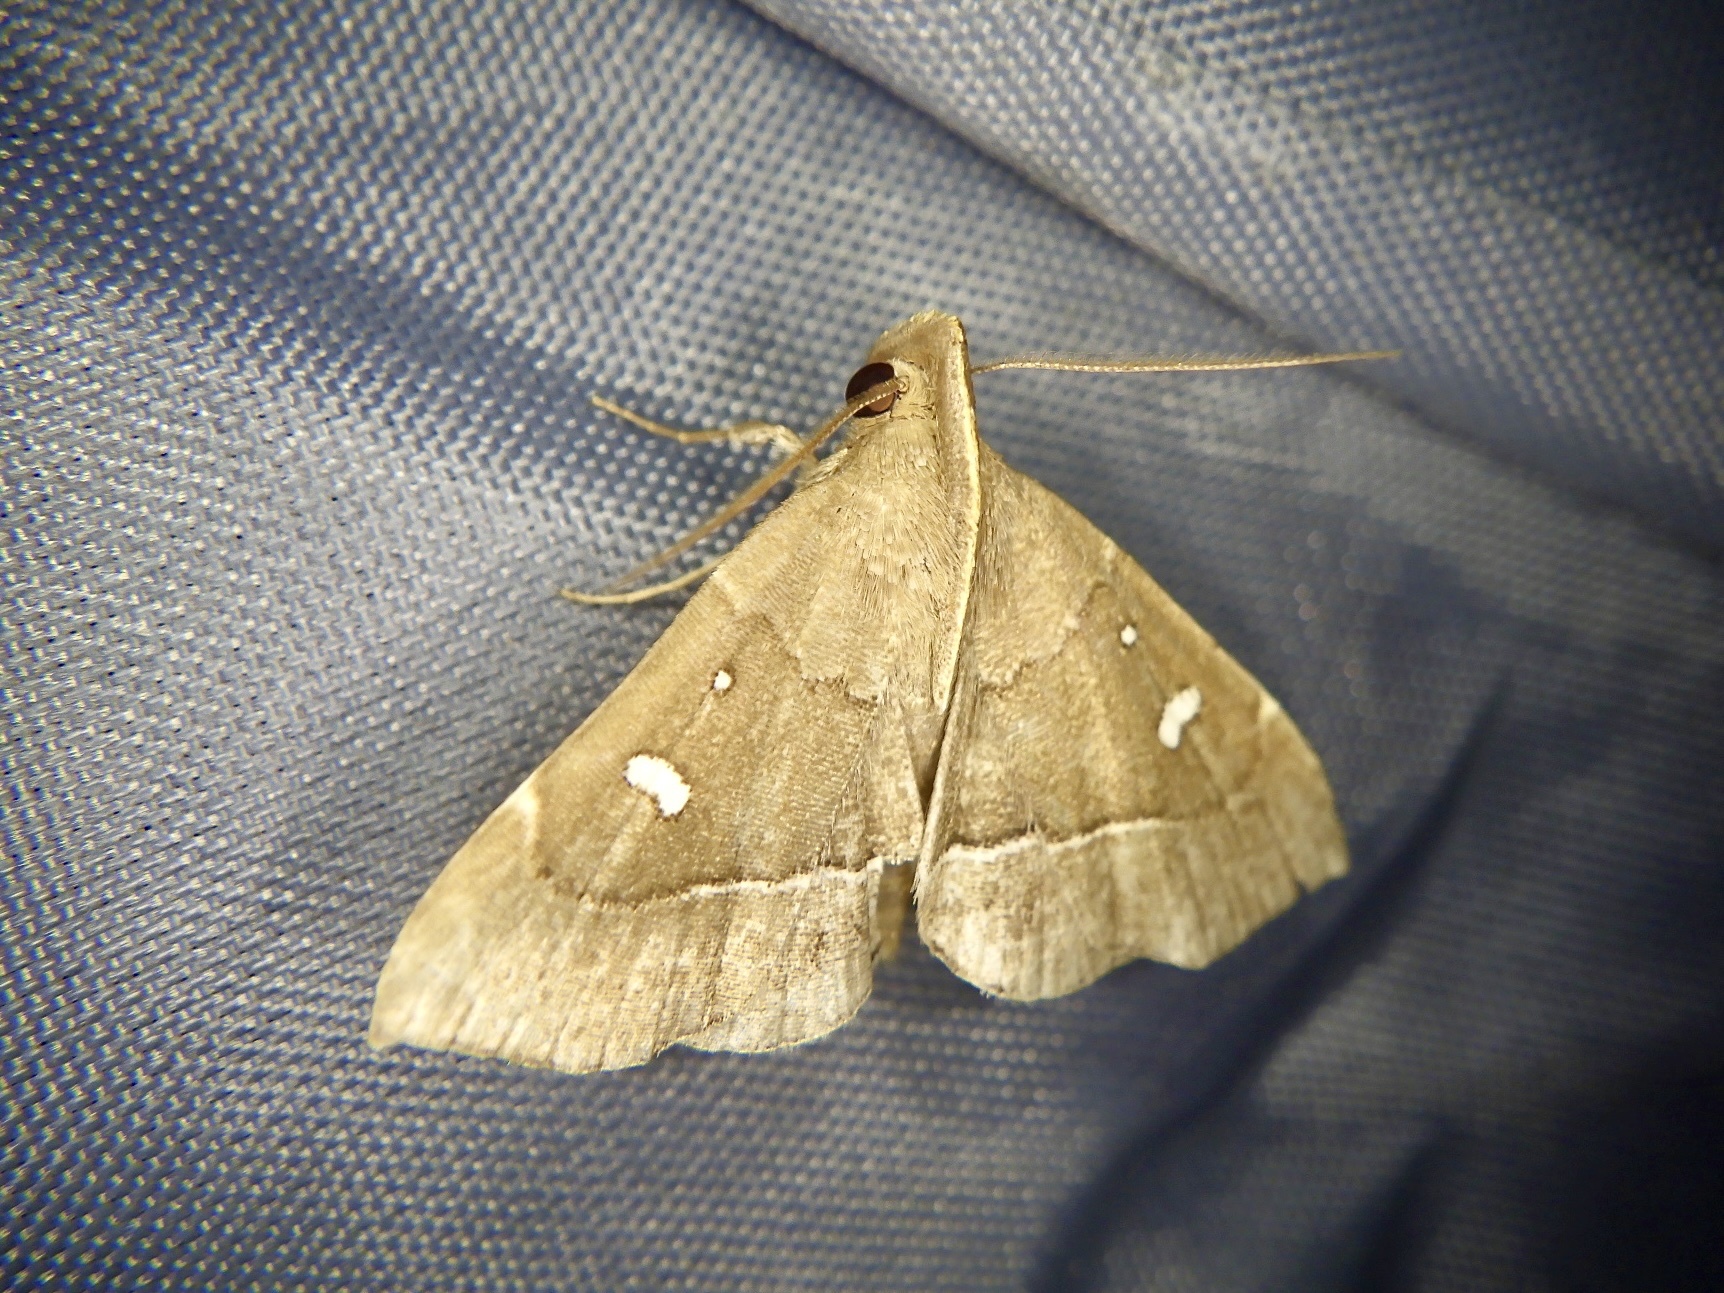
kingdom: Animalia
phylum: Arthropoda
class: Insecta
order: Lepidoptera
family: Erebidae
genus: Cidariplura
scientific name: Cidariplura gladiata
